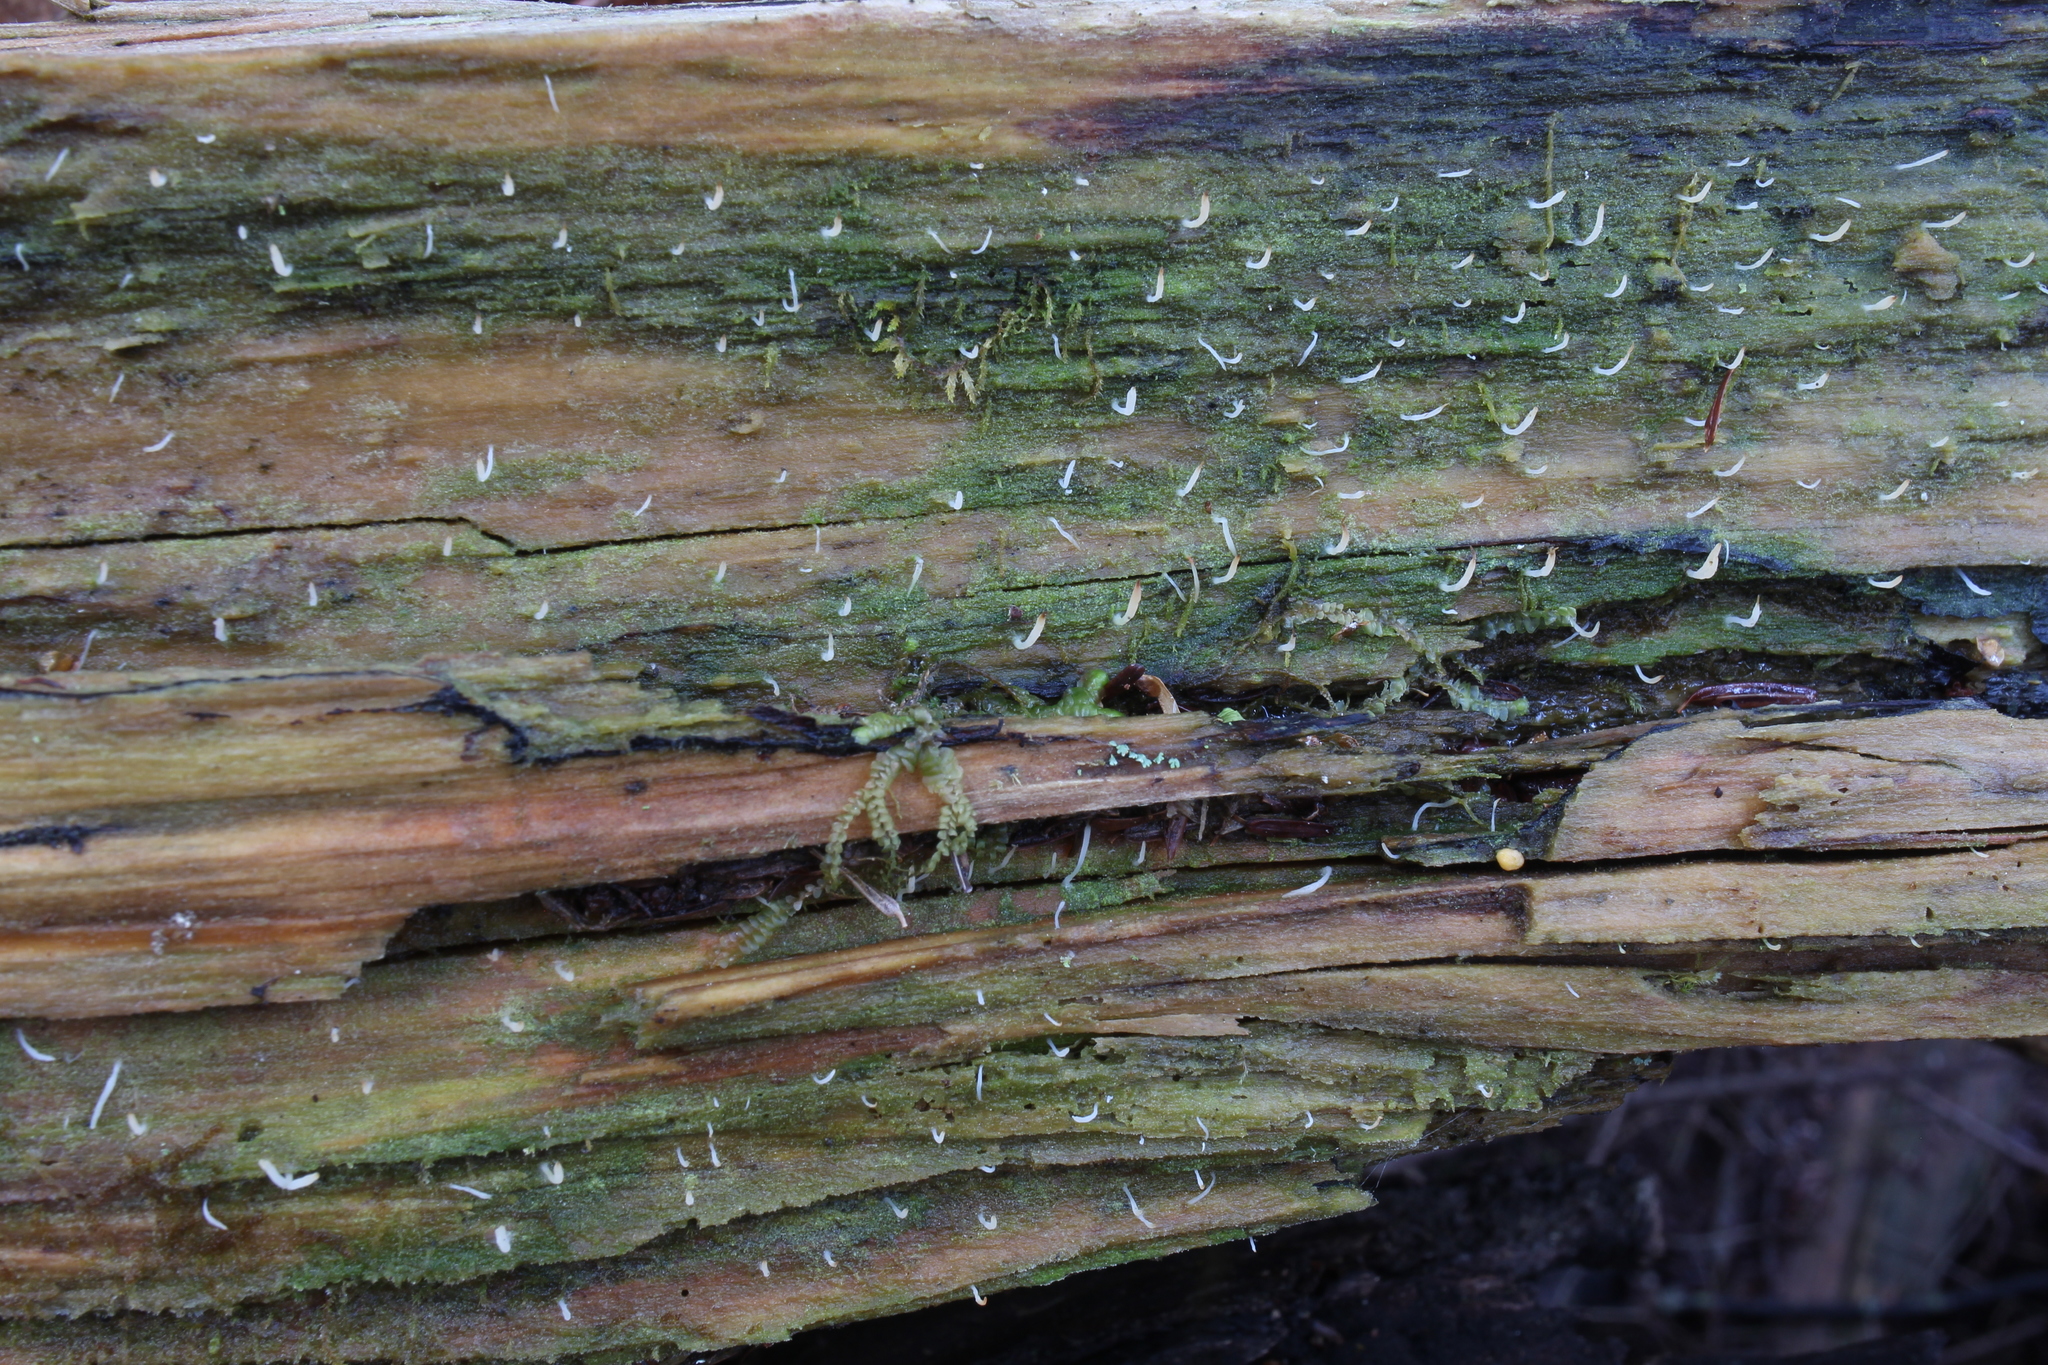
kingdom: Fungi
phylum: Basidiomycota
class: Agaricomycetes
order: Cantharellales
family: Hydnaceae
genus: Multiclavula
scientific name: Multiclavula mucida
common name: White green-algae coral
